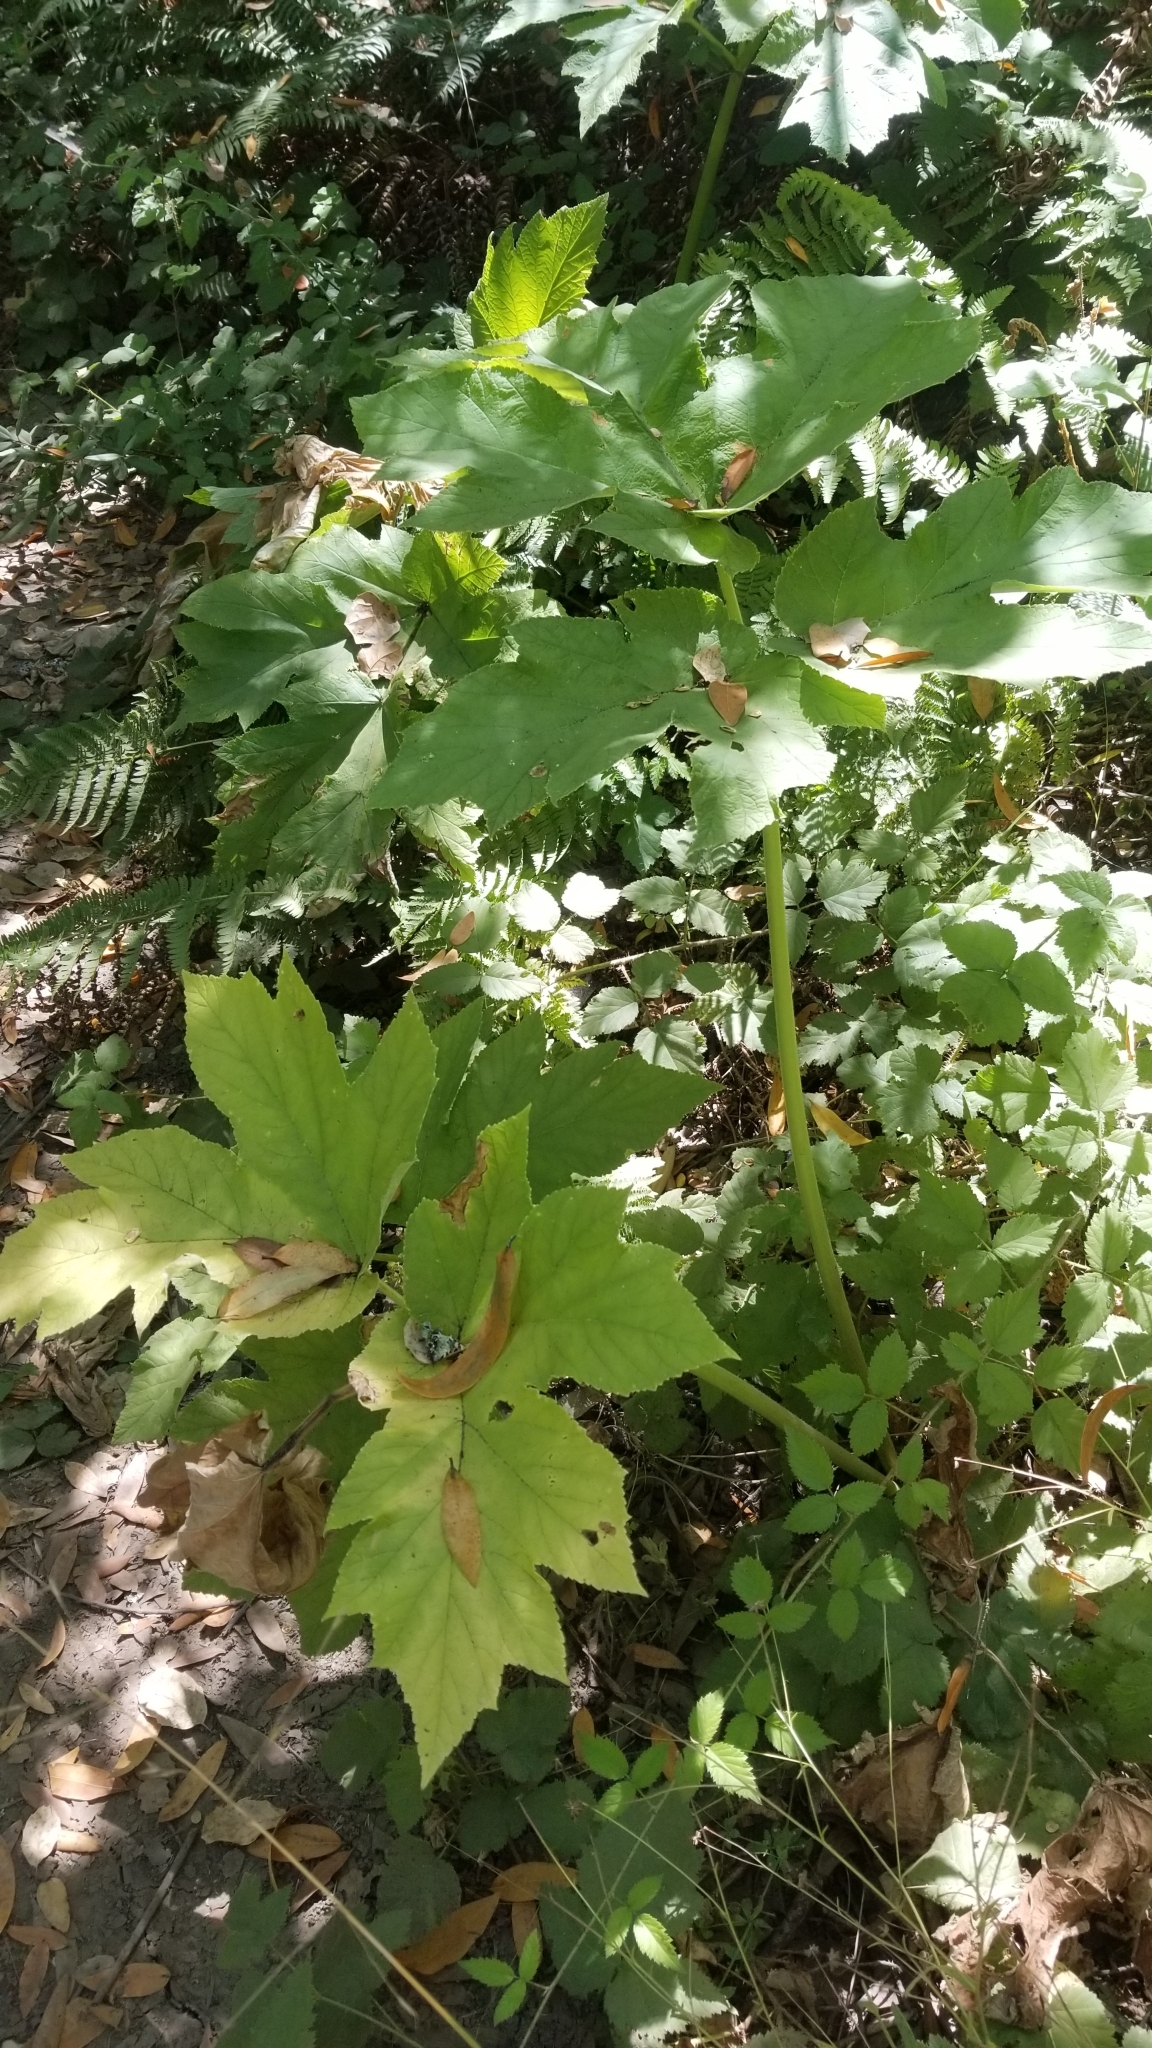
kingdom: Plantae
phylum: Tracheophyta
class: Magnoliopsida
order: Apiales
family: Apiaceae
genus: Heracleum
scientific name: Heracleum maximum
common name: American cow parsnip
